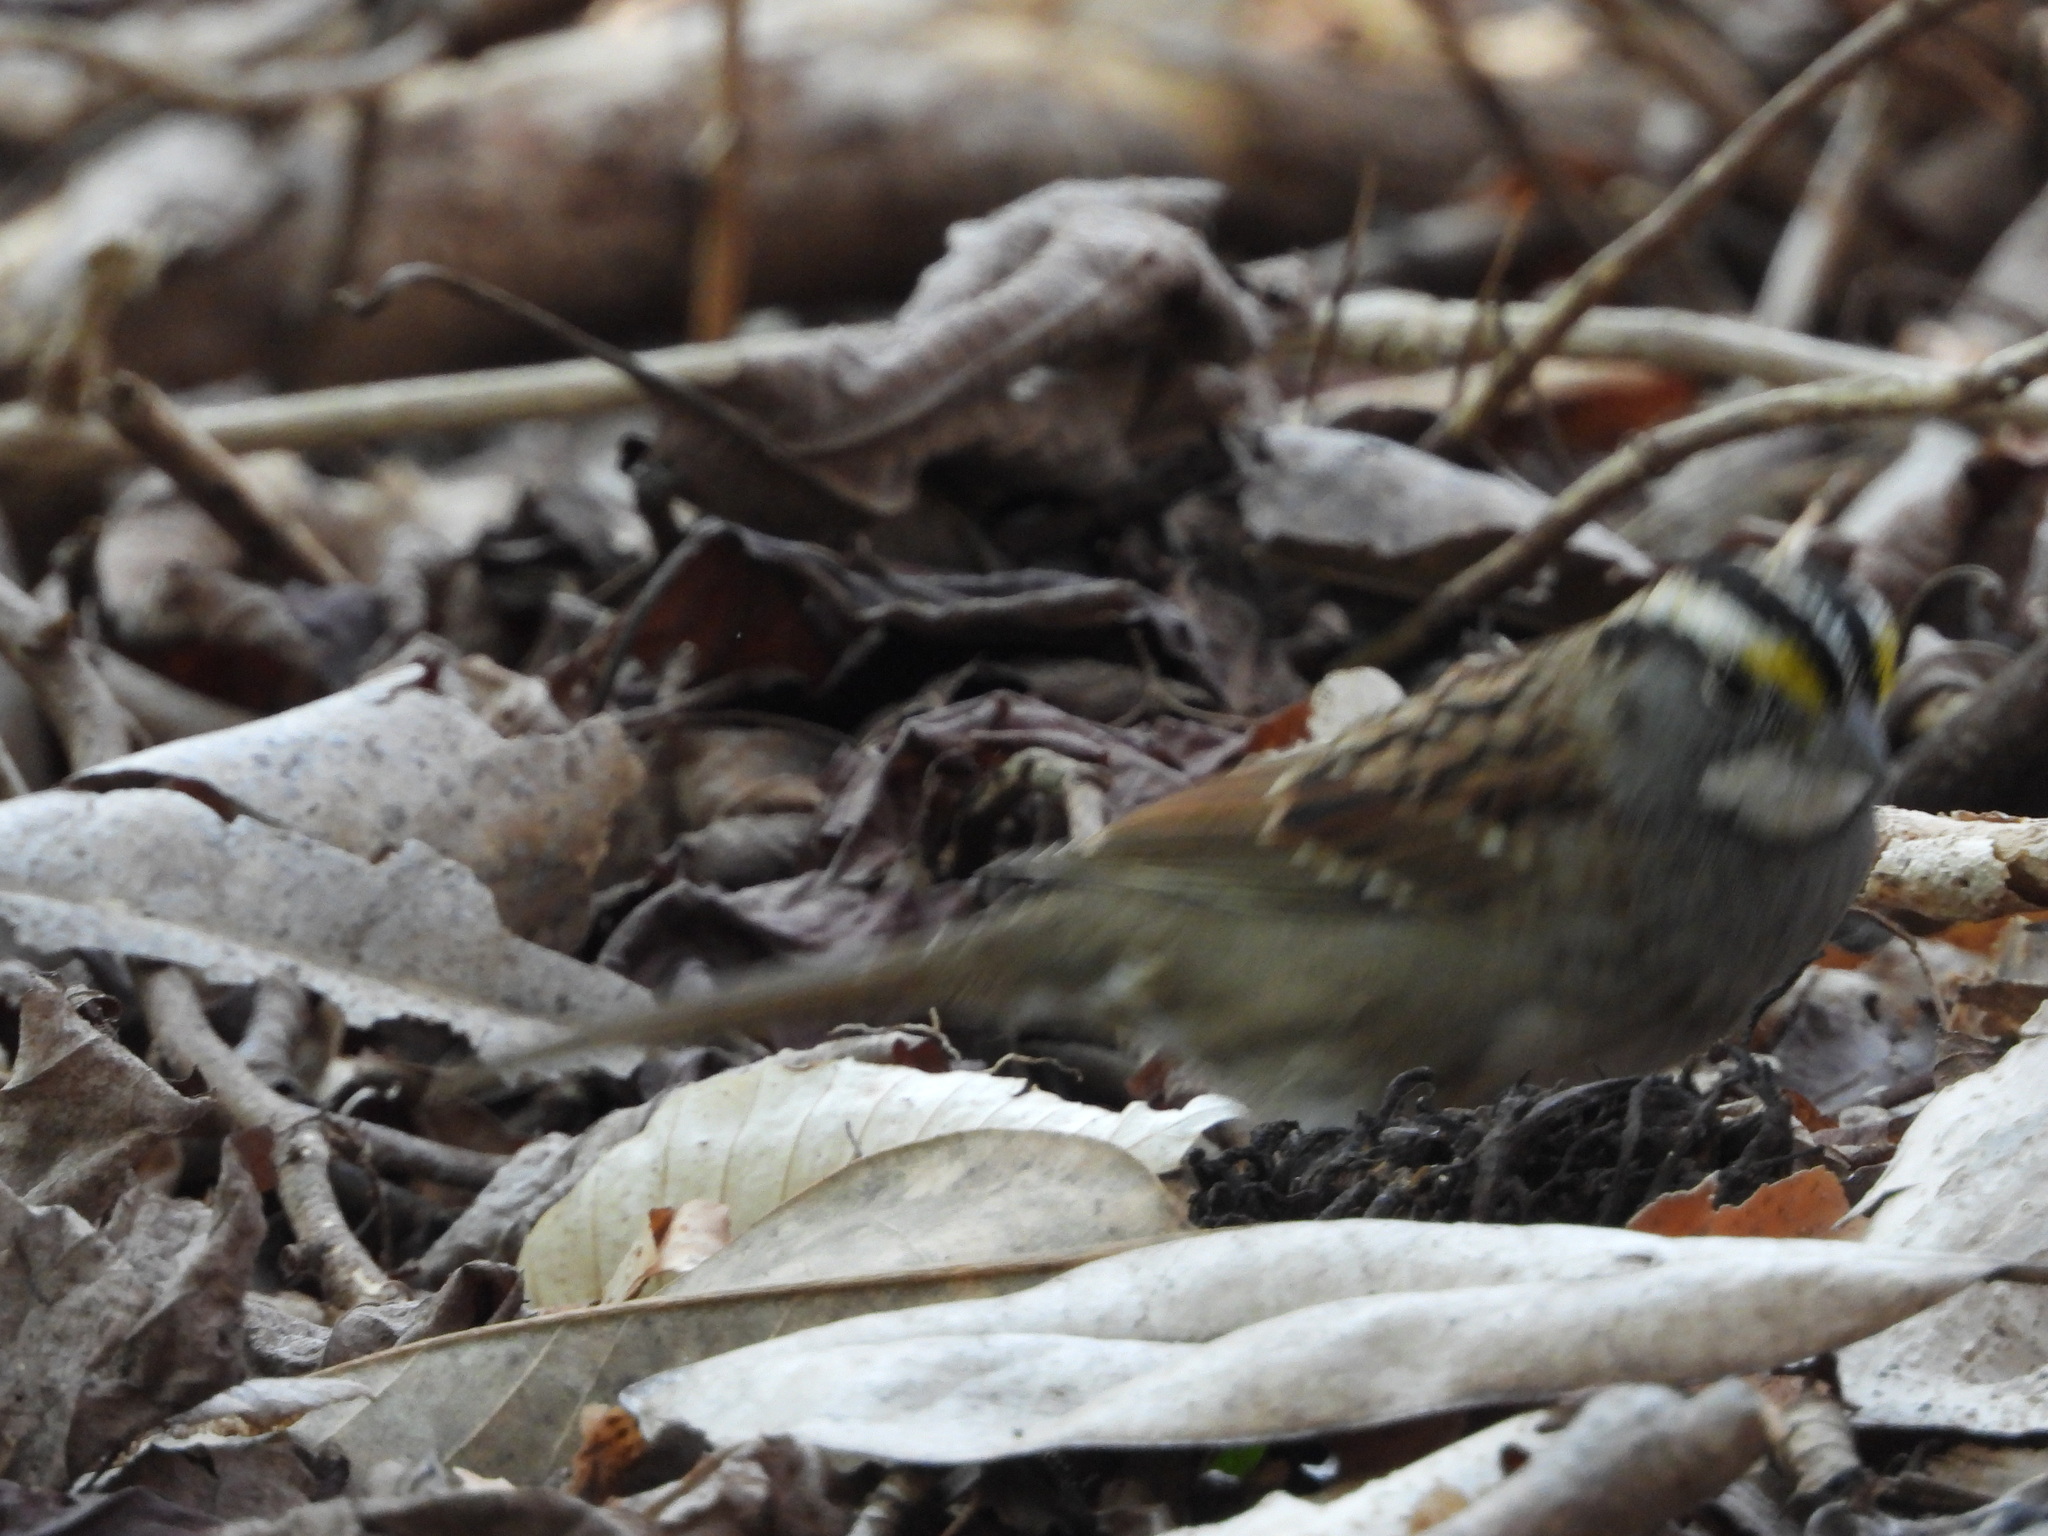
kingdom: Animalia
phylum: Chordata
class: Aves
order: Passeriformes
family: Passerellidae
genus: Zonotrichia
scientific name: Zonotrichia albicollis
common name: White-throated sparrow
